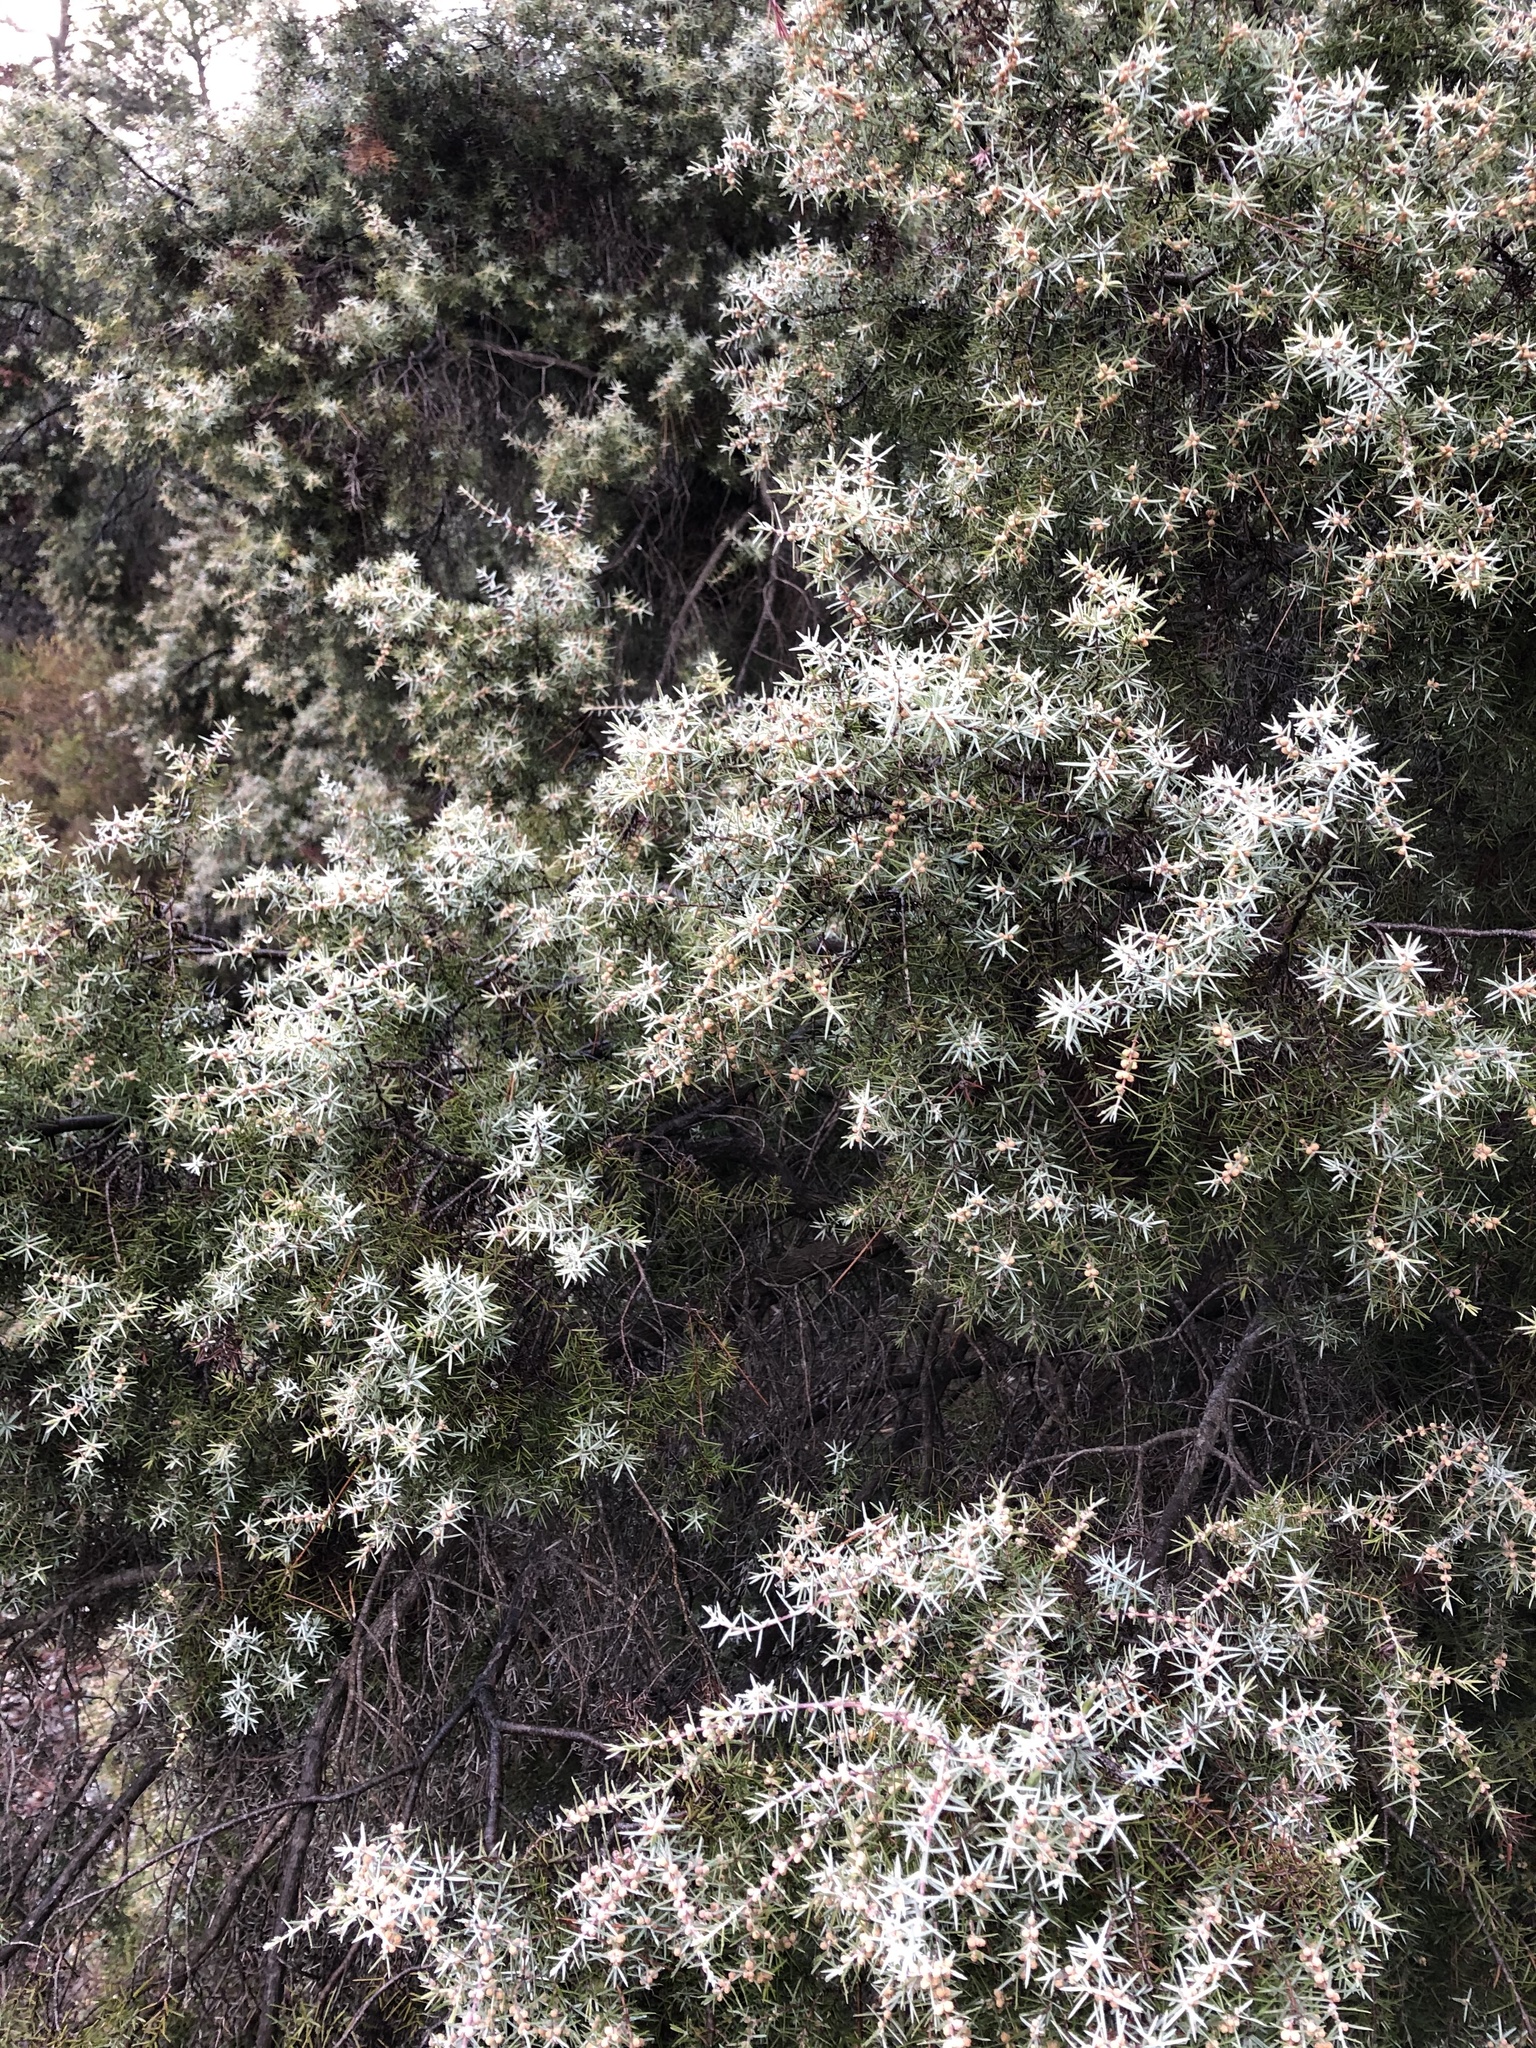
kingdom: Plantae
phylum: Tracheophyta
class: Pinopsida
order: Pinales
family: Cupressaceae
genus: Juniperus
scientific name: Juniperus oxycedrus
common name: Prickly juniper
